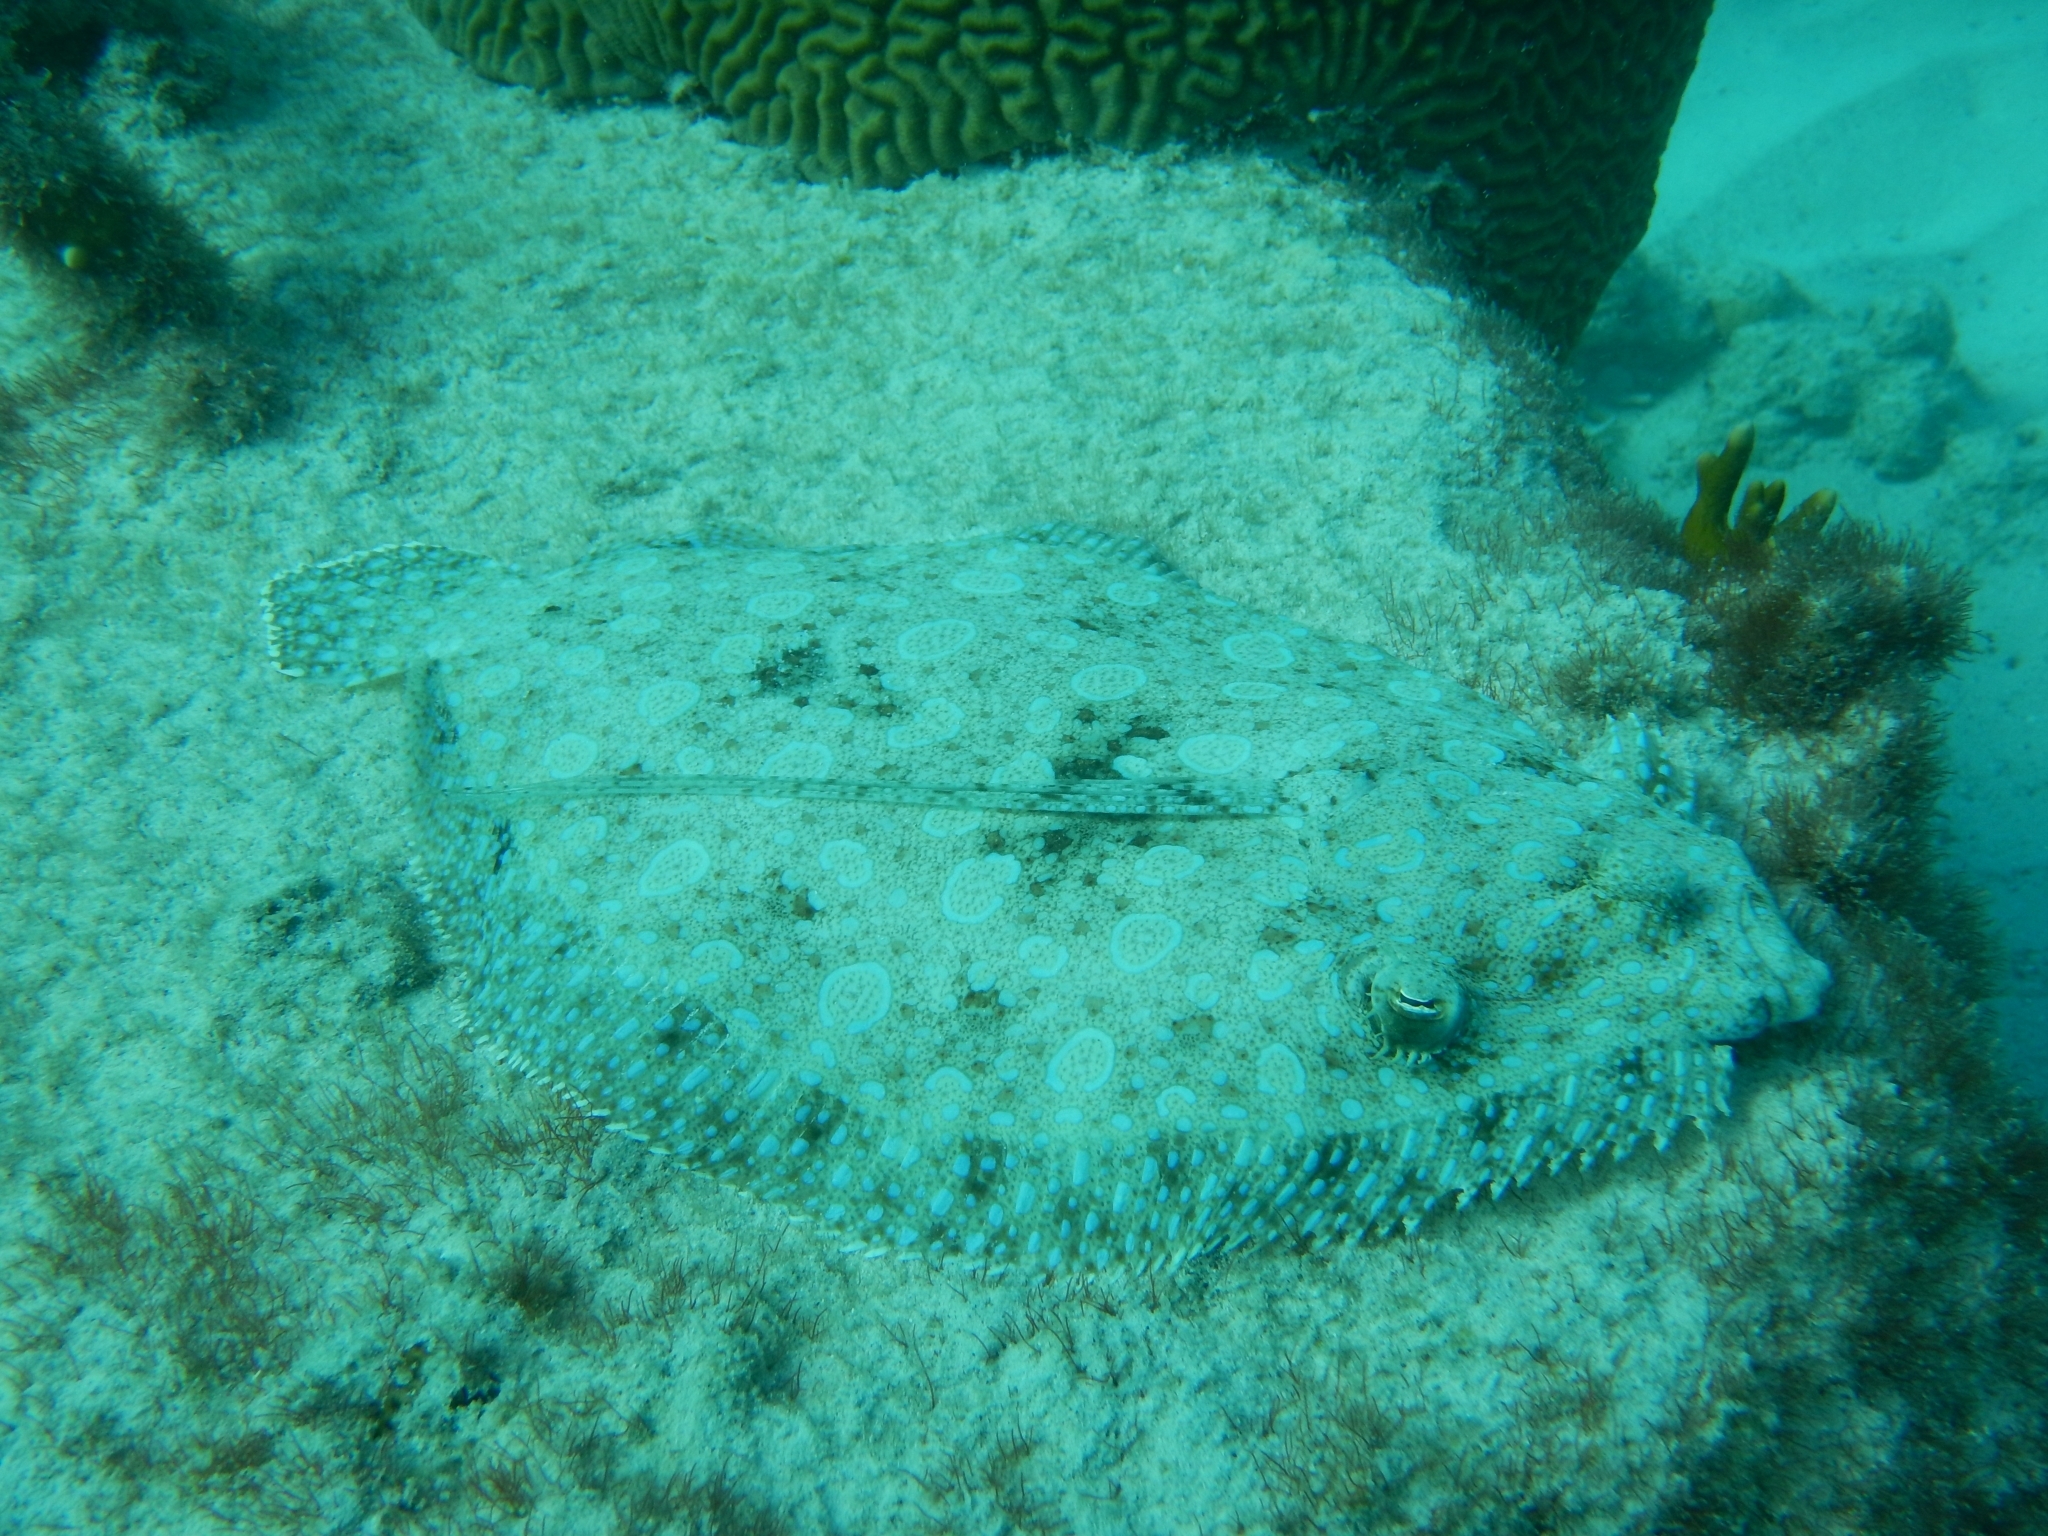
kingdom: Animalia
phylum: Chordata
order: Pleuronectiformes
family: Bothidae
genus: Bothus
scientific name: Bothus lunatus
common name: Peacock flounder
